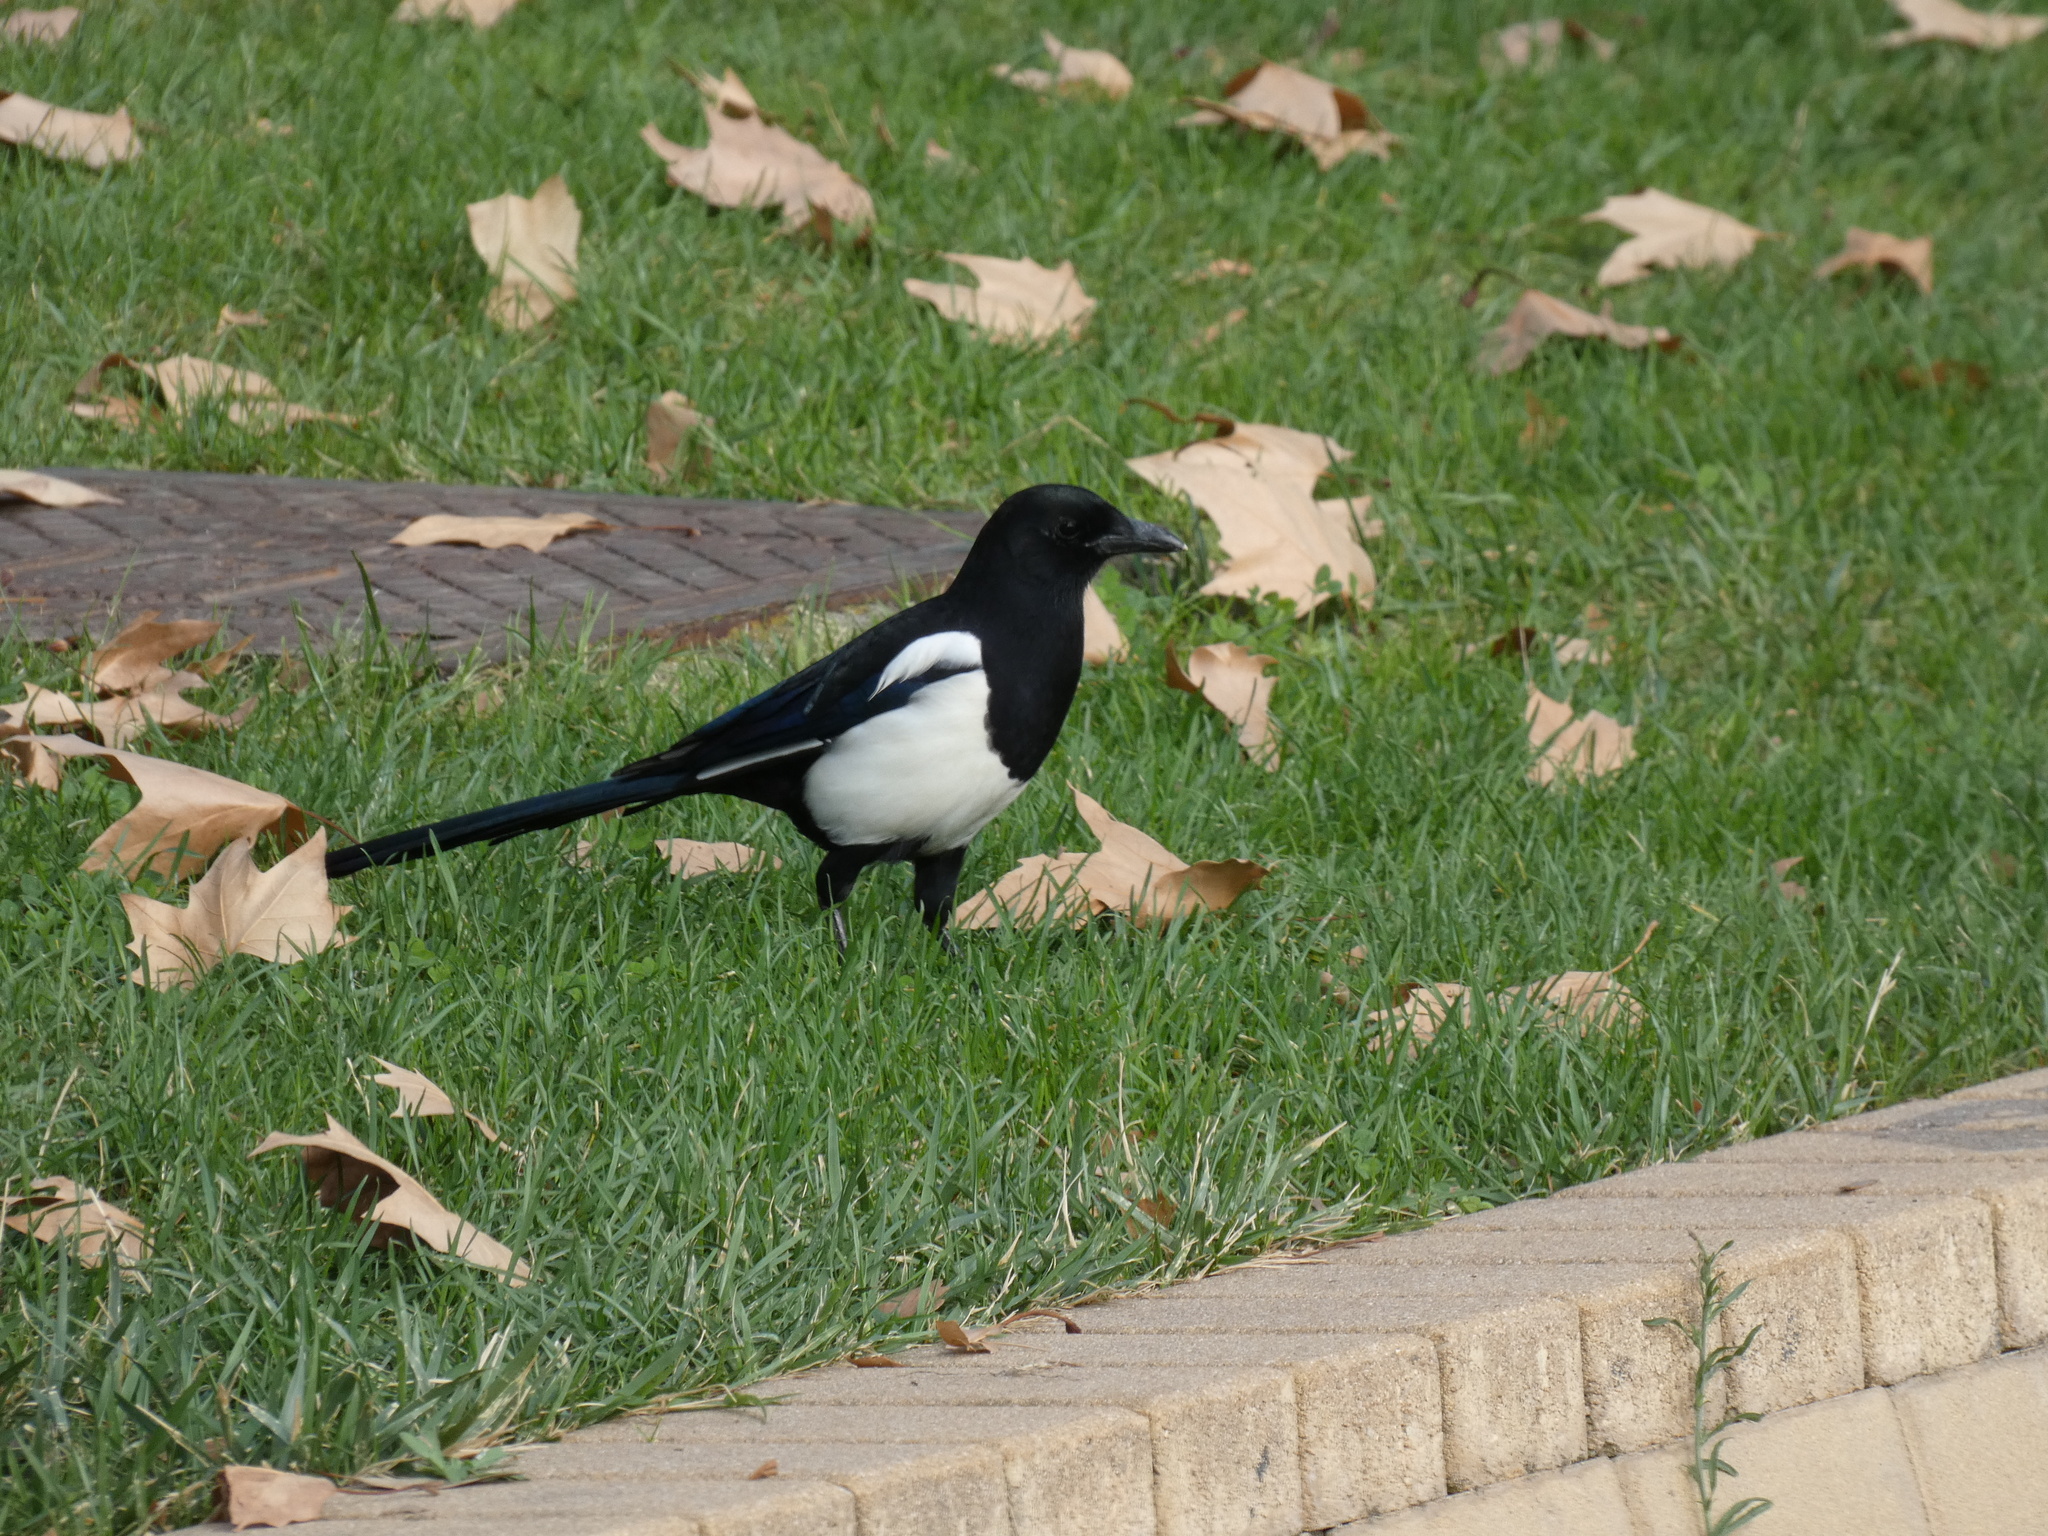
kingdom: Animalia
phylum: Chordata
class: Aves
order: Passeriformes
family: Corvidae
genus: Pica
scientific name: Pica pica
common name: Eurasian magpie
